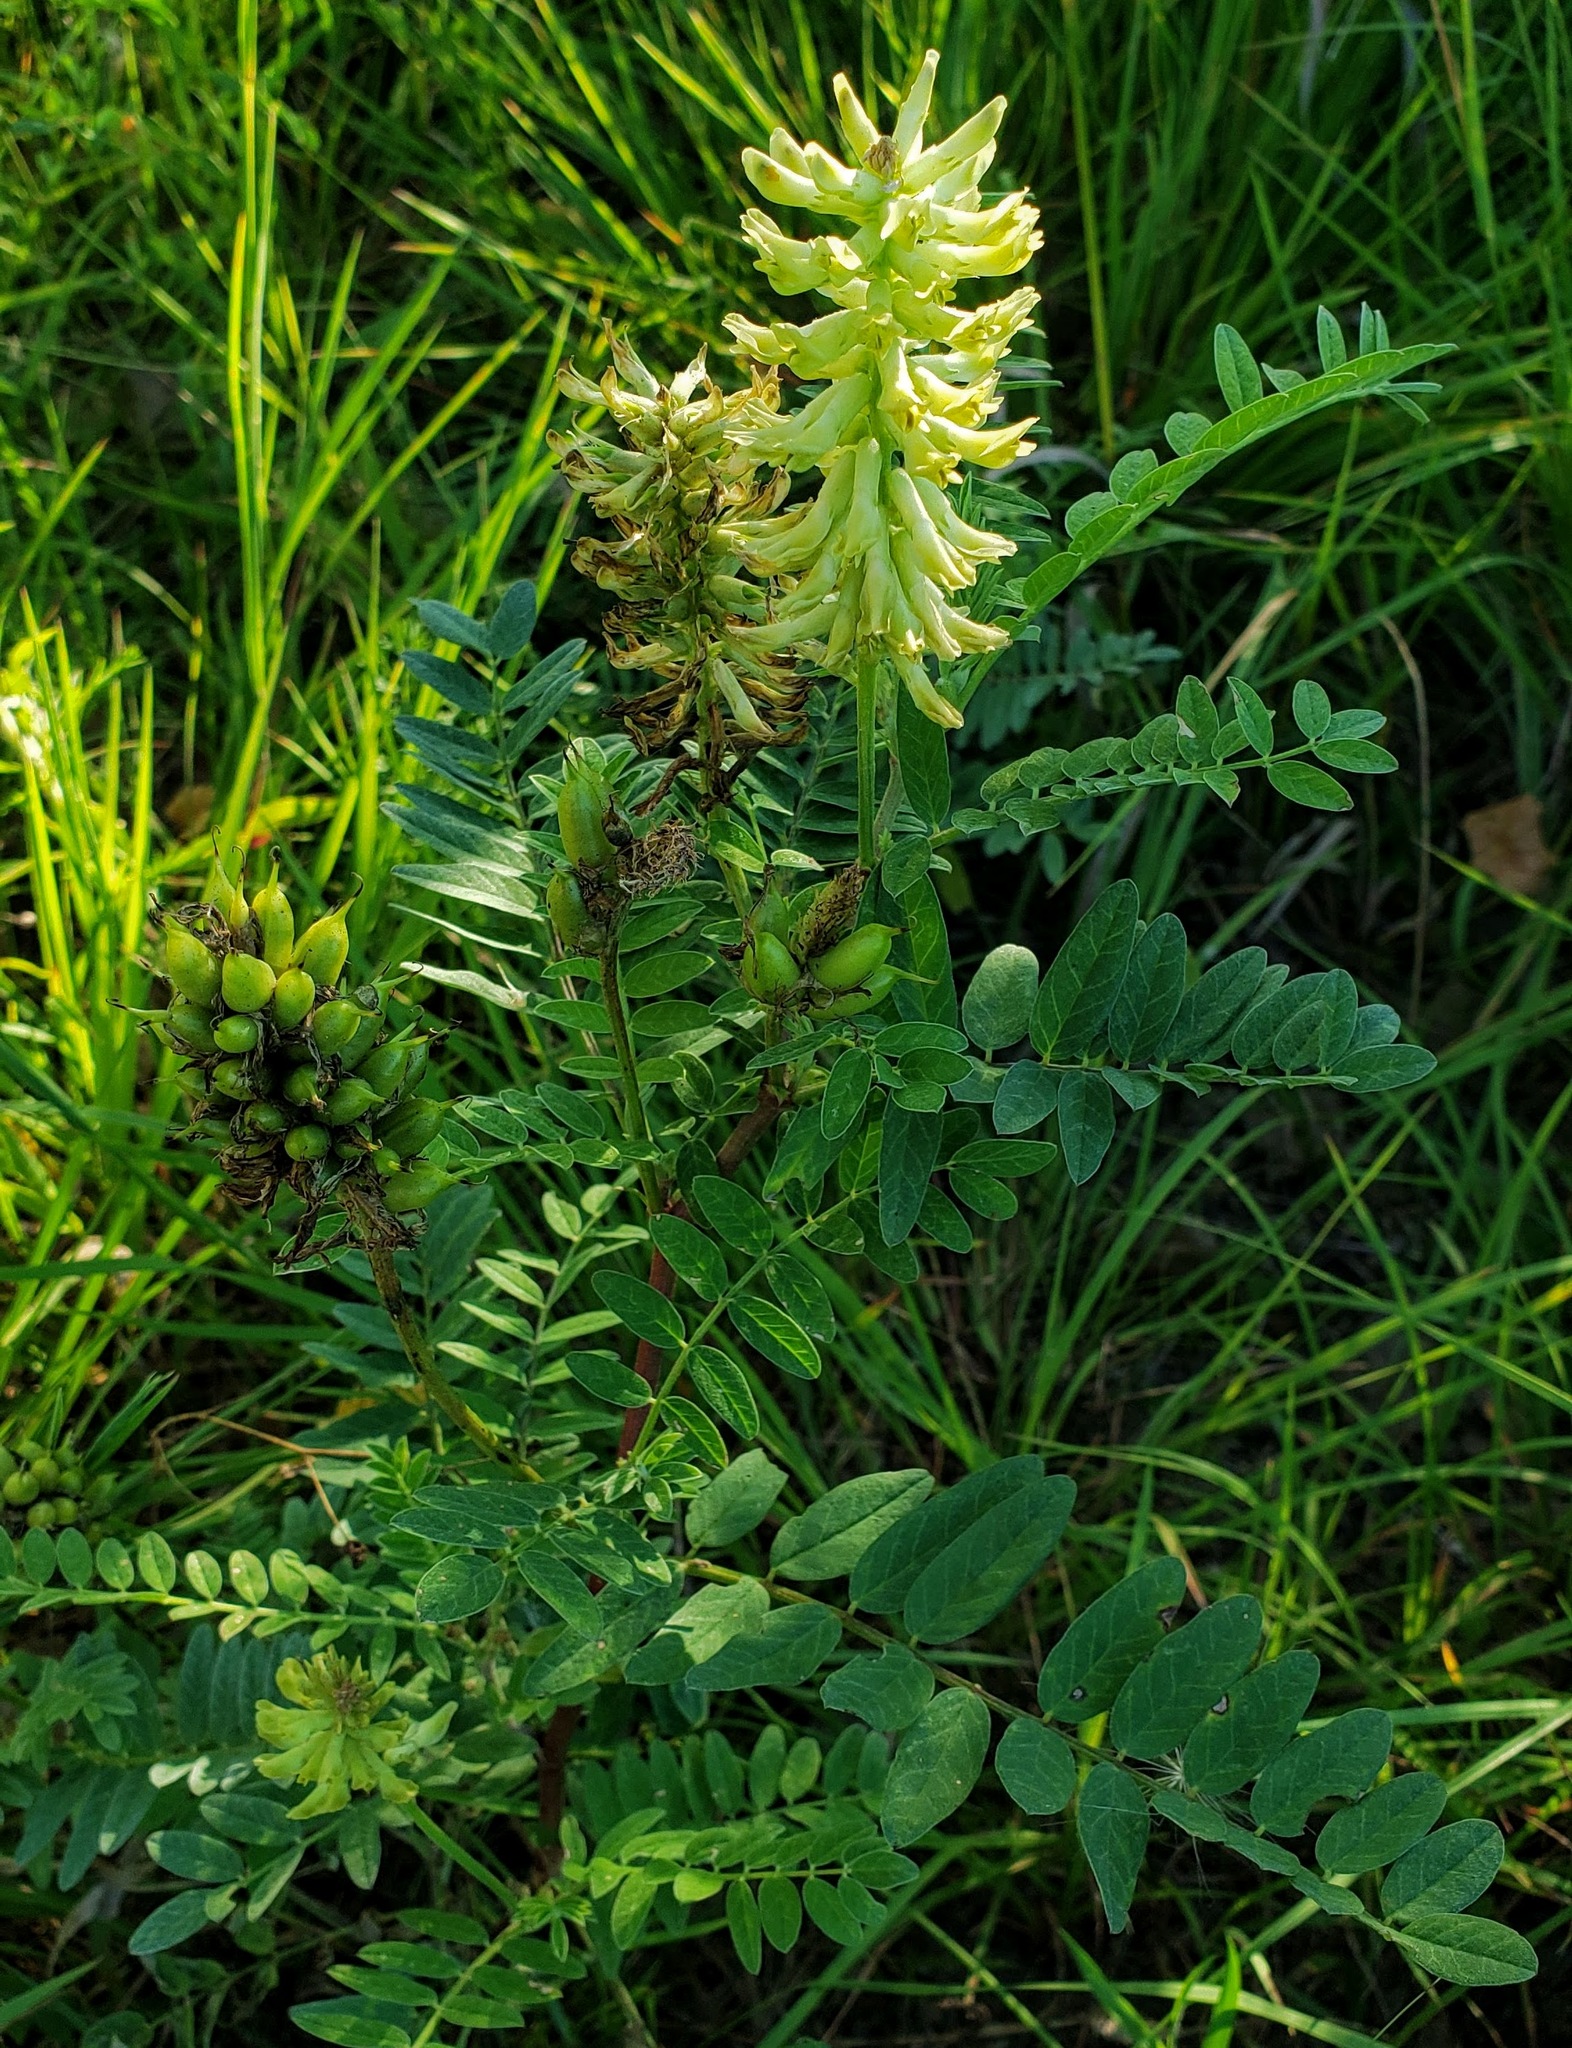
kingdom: Plantae
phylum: Tracheophyta
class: Magnoliopsida
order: Fabales
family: Fabaceae
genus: Astragalus
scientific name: Astragalus canadensis
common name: Canada milk-vetch
